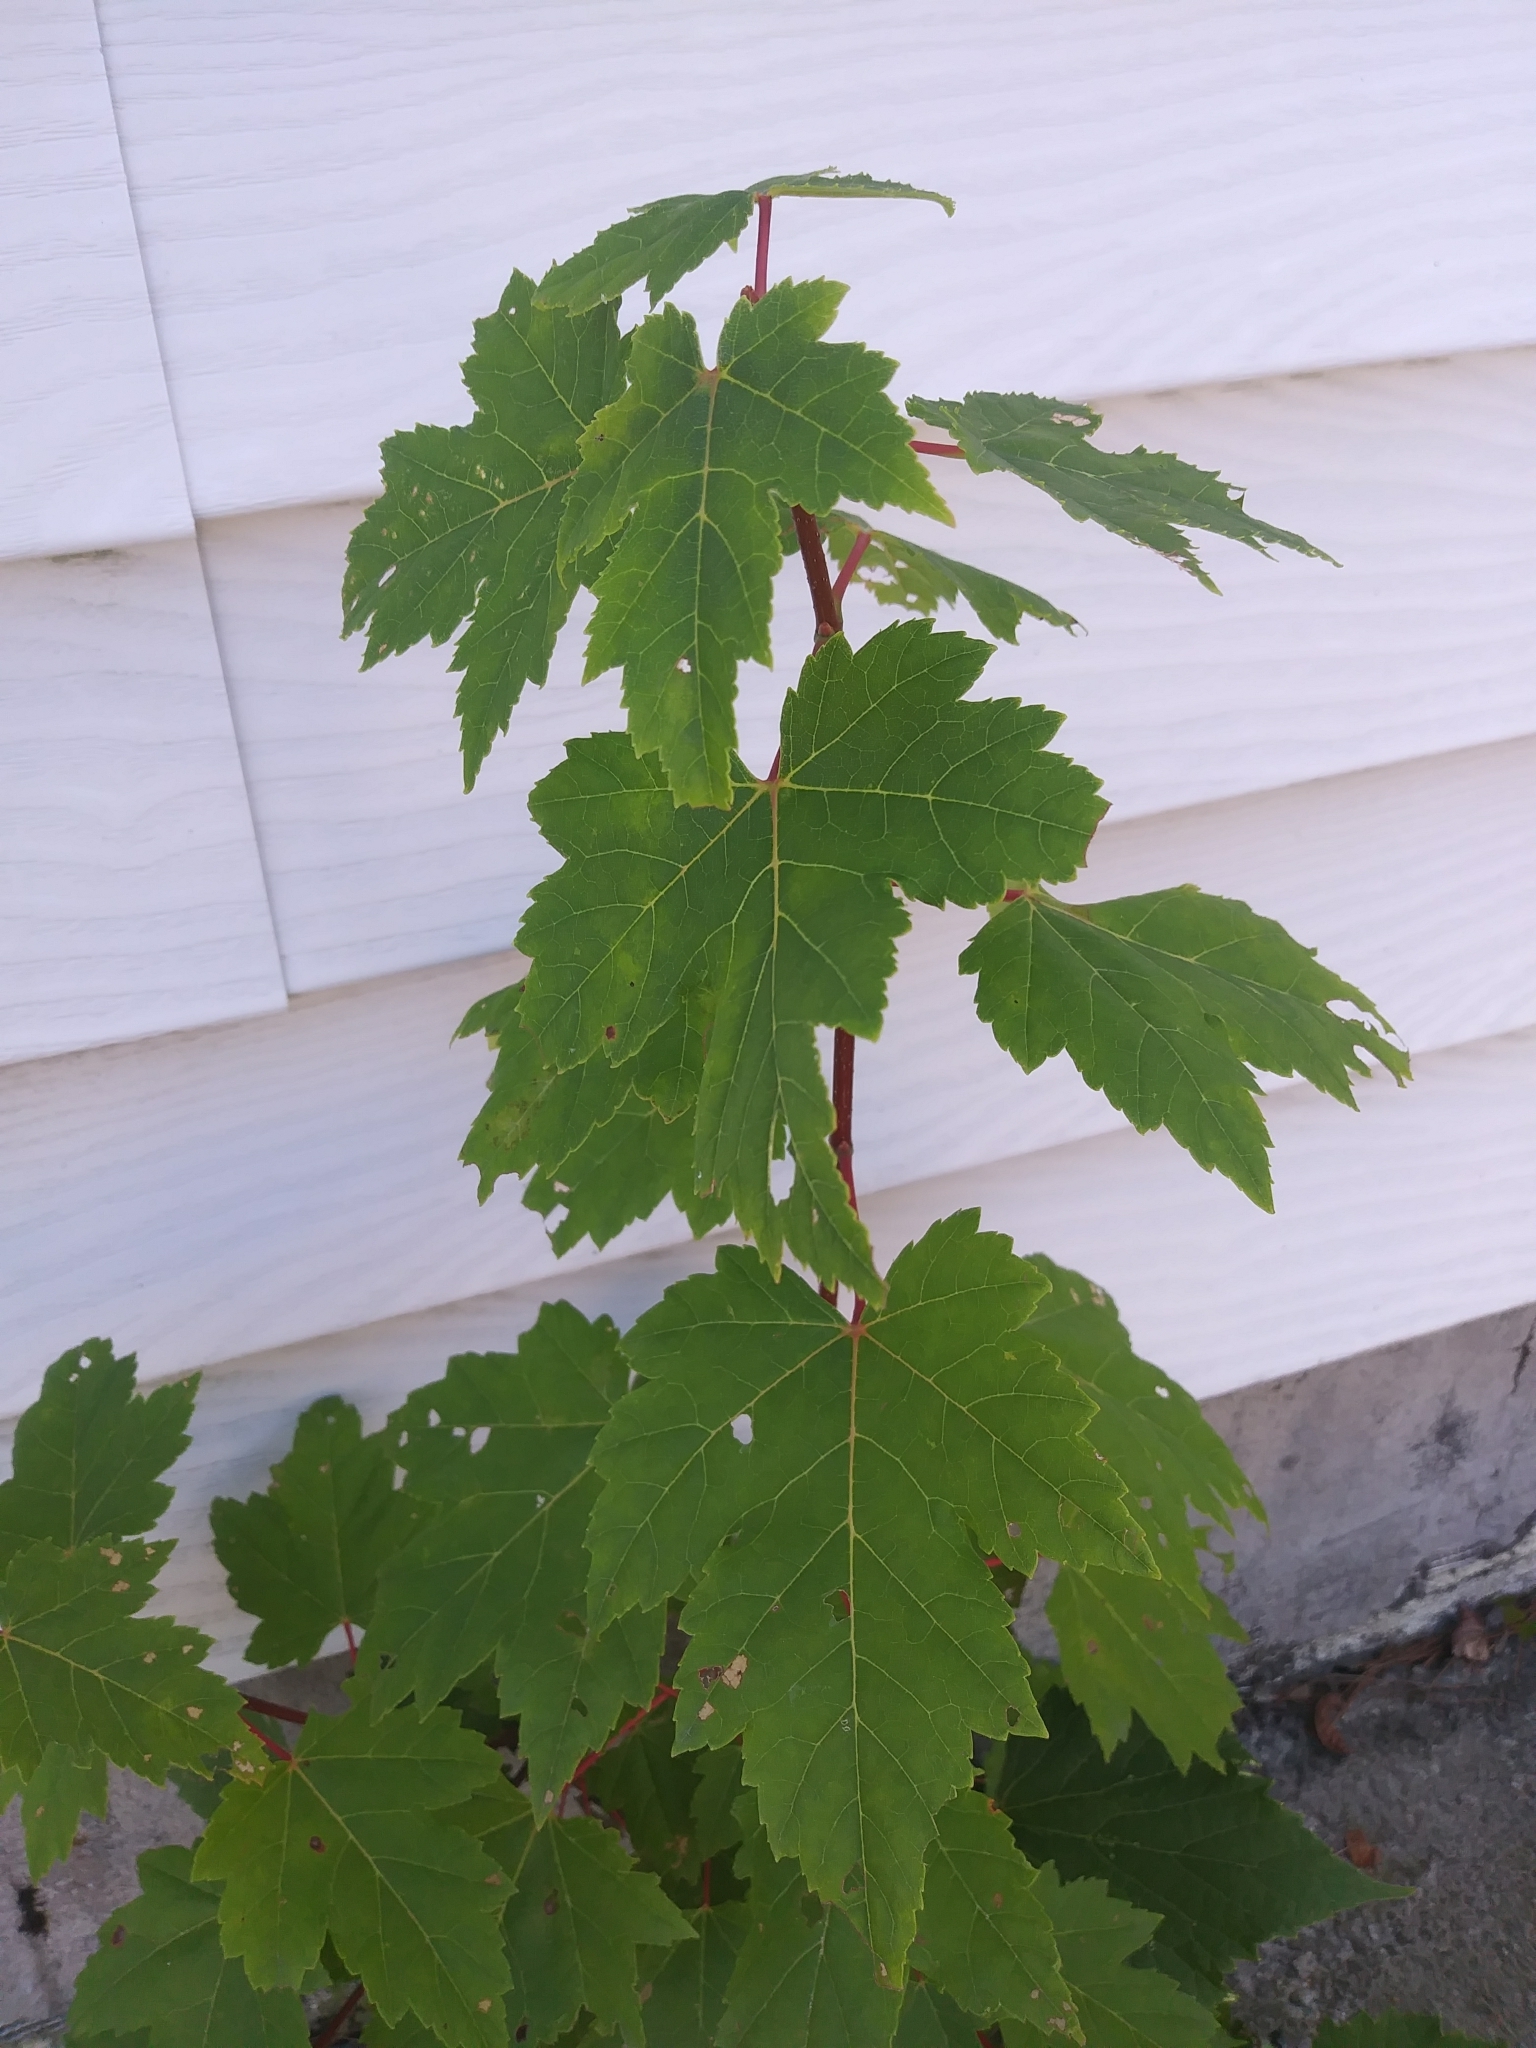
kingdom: Plantae
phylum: Tracheophyta
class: Magnoliopsida
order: Sapindales
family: Sapindaceae
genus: Acer
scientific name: Acer rubrum
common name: Red maple
